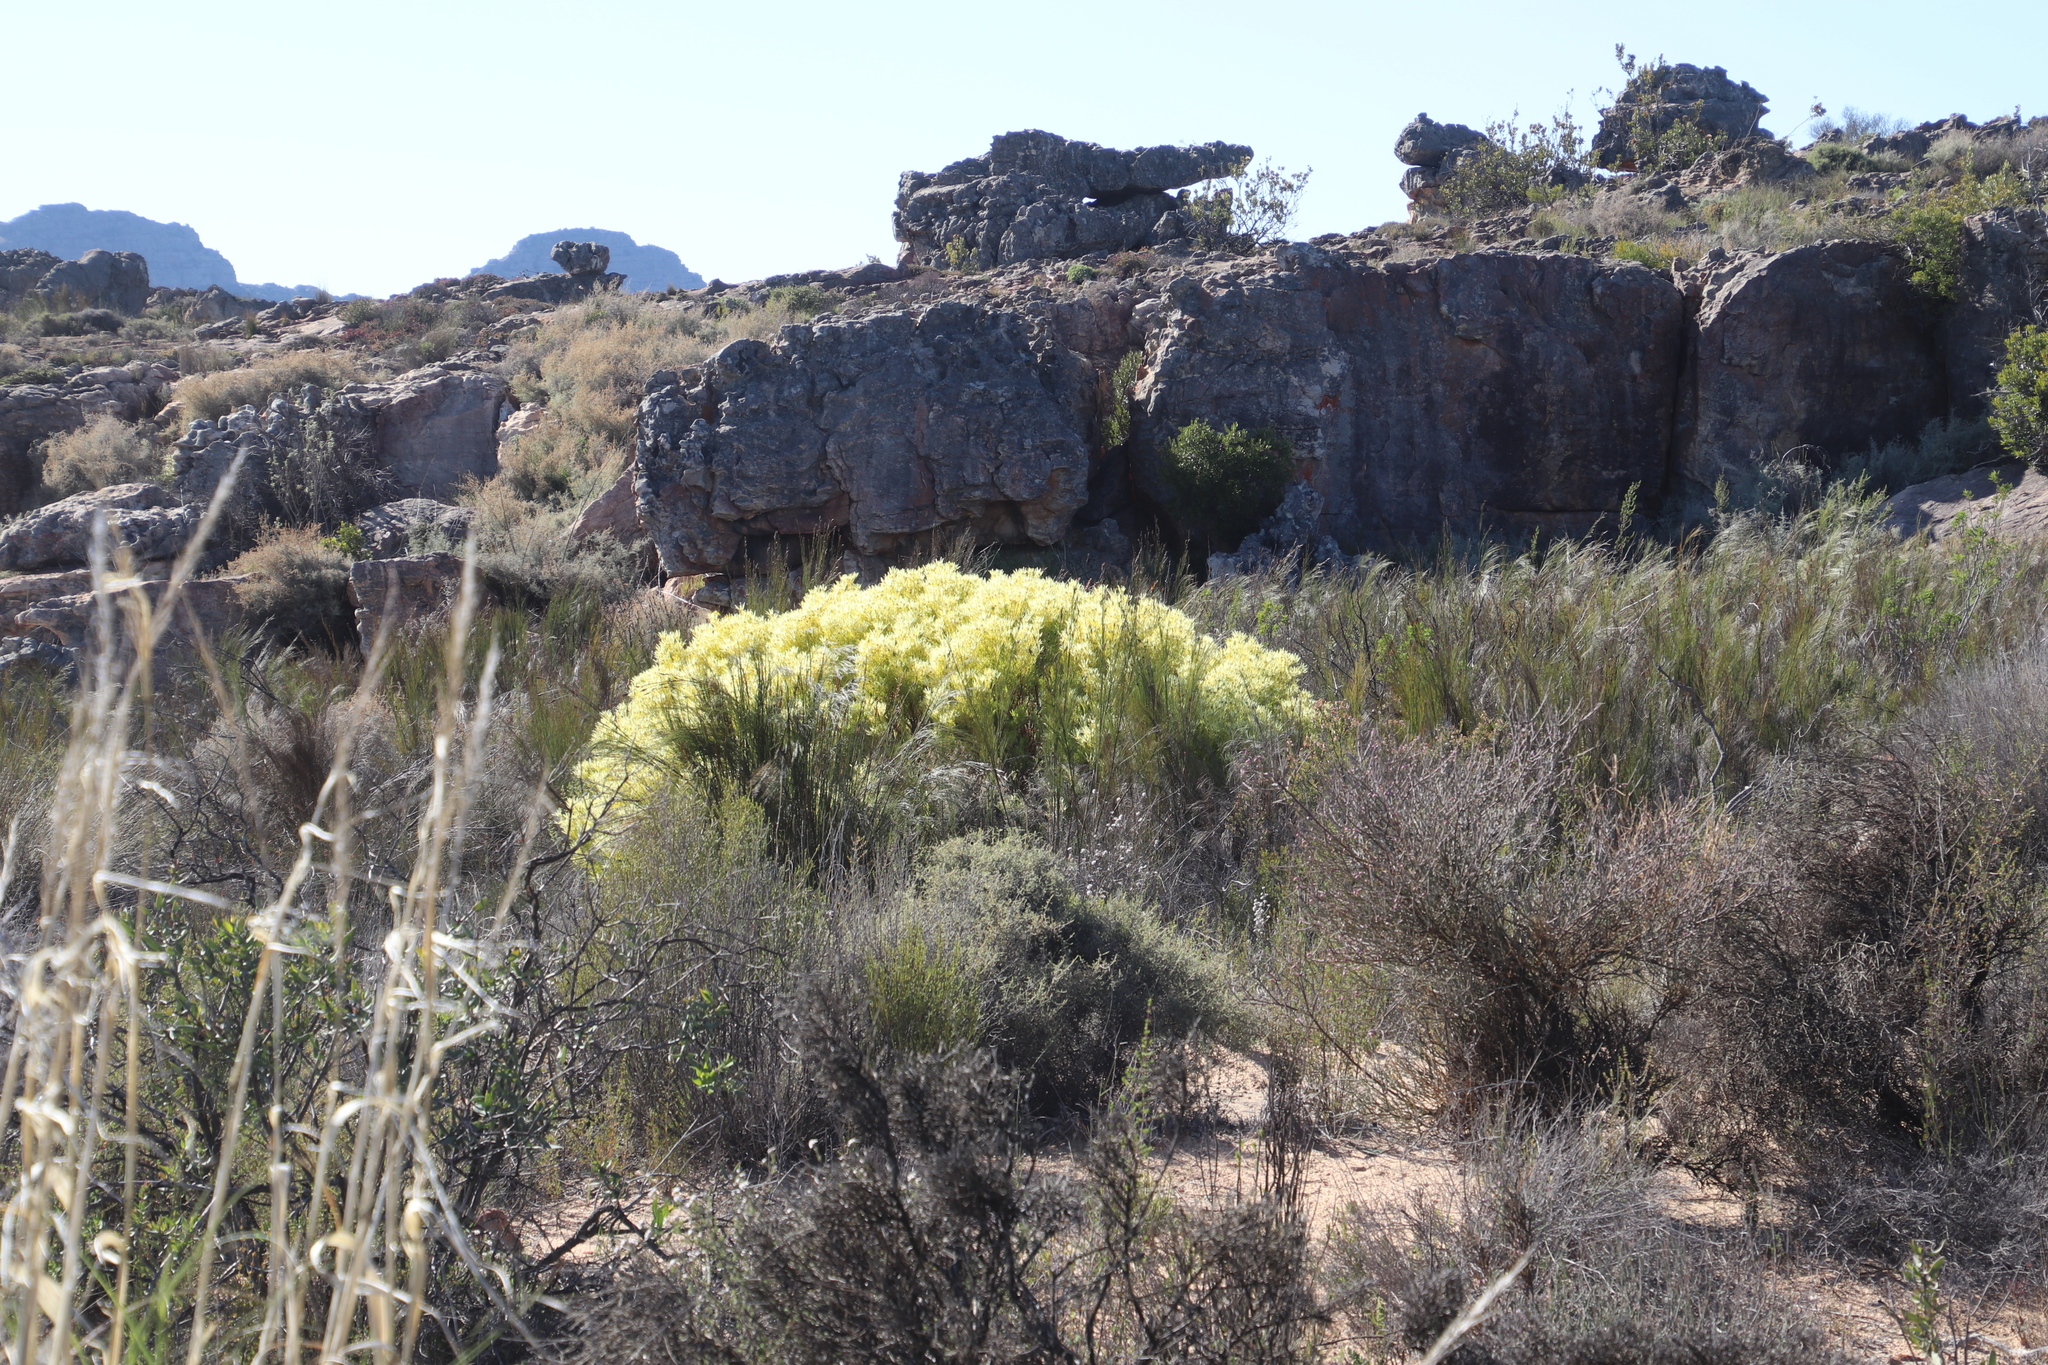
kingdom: Plantae
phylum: Tracheophyta
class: Magnoliopsida
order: Proteales
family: Proteaceae
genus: Leucadendron
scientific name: Leucadendron salignum
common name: Common sunshine conebush
